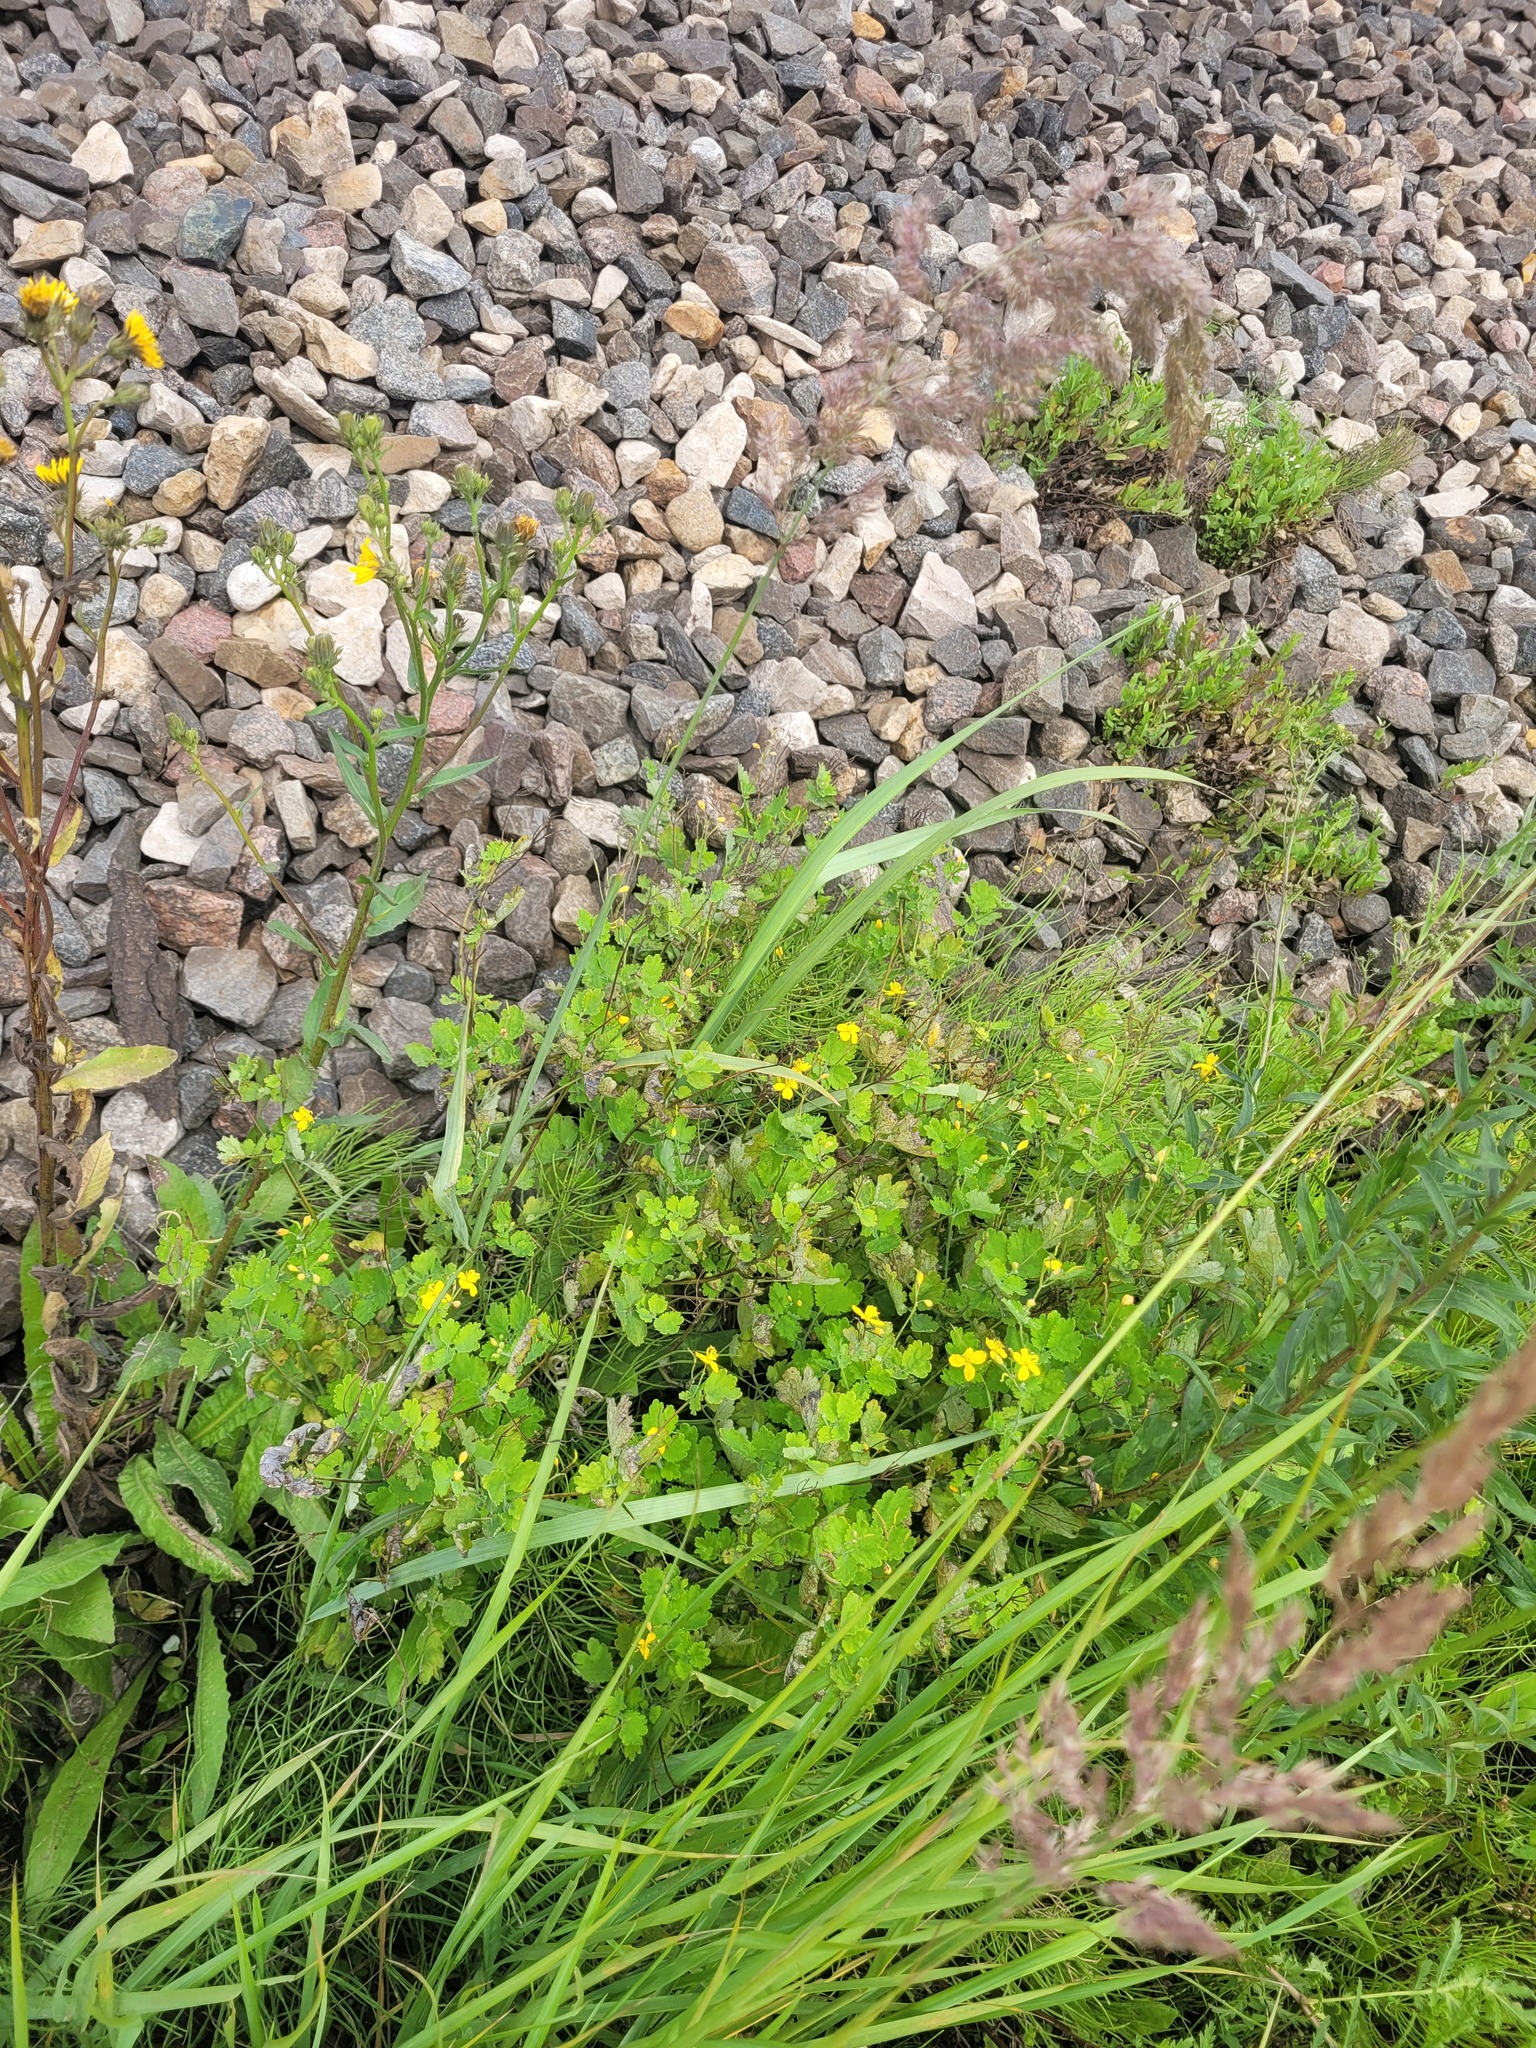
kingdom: Plantae
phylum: Tracheophyta
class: Magnoliopsida
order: Ranunculales
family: Papaveraceae
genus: Chelidonium
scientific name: Chelidonium majus
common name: Greater celandine
